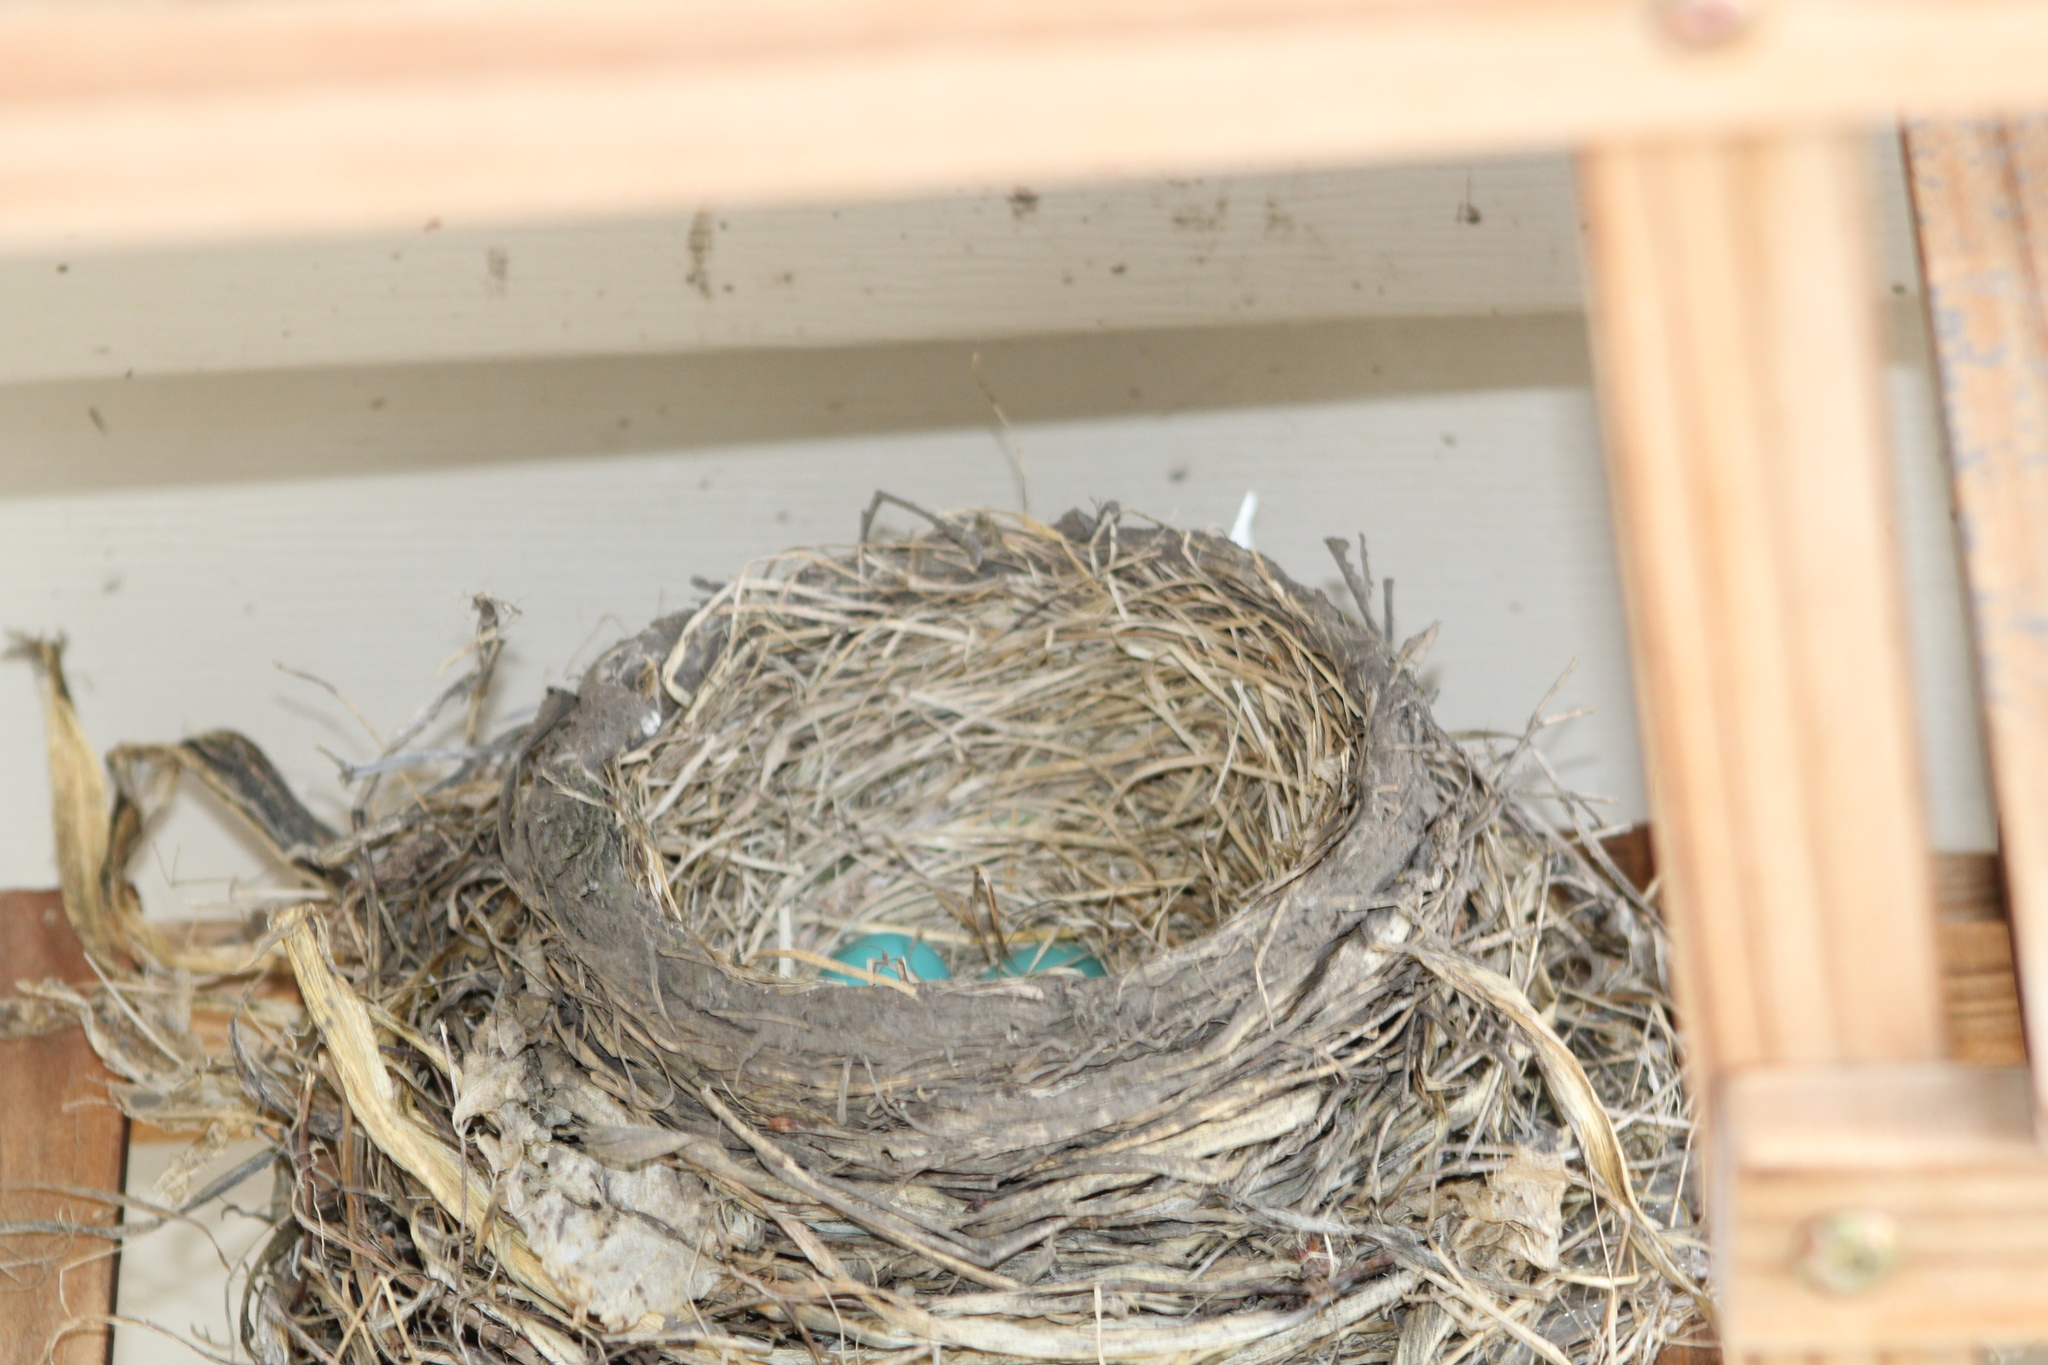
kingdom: Animalia
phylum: Chordata
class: Aves
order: Passeriformes
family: Turdidae
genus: Turdus
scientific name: Turdus migratorius
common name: American robin
